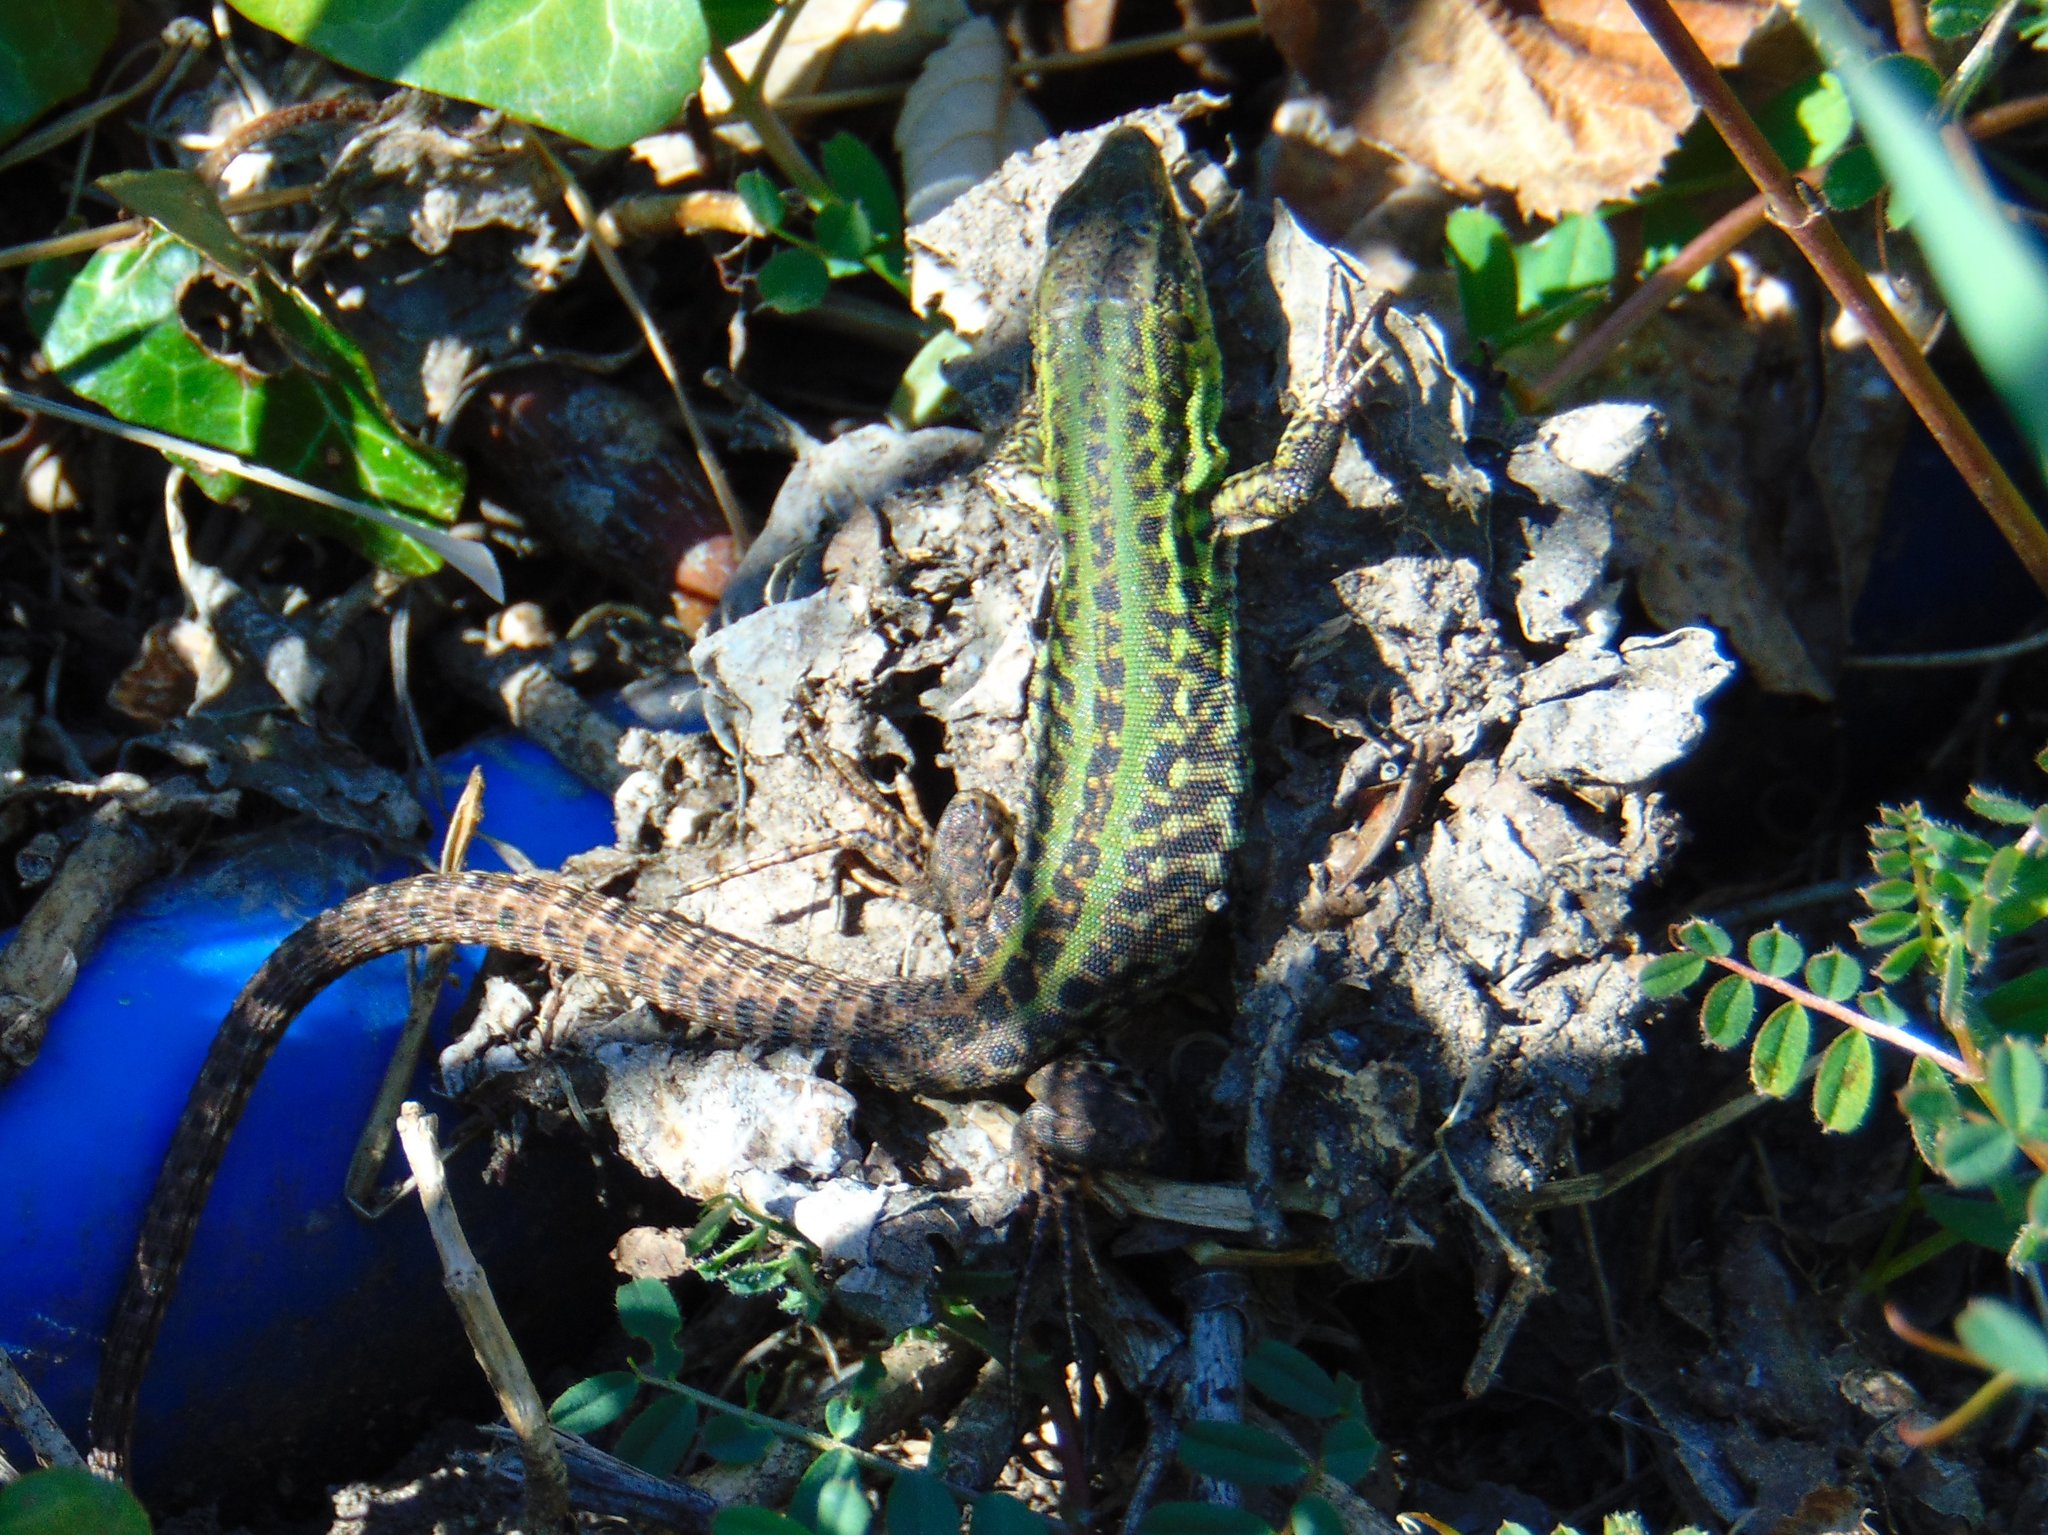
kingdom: Animalia
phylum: Chordata
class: Squamata
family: Lacertidae
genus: Podarcis
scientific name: Podarcis siculus
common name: Italian wall lizard
